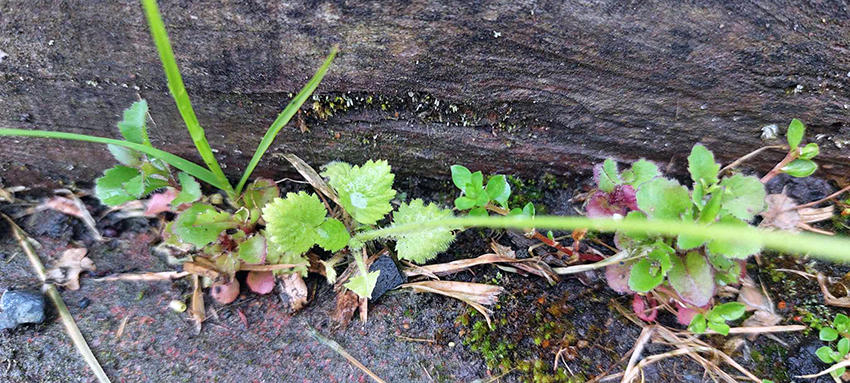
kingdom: Plantae
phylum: Tracheophyta
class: Magnoliopsida
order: Ericales
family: Primulaceae
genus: Primula
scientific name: Primula malacoides
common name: Baby primrose
